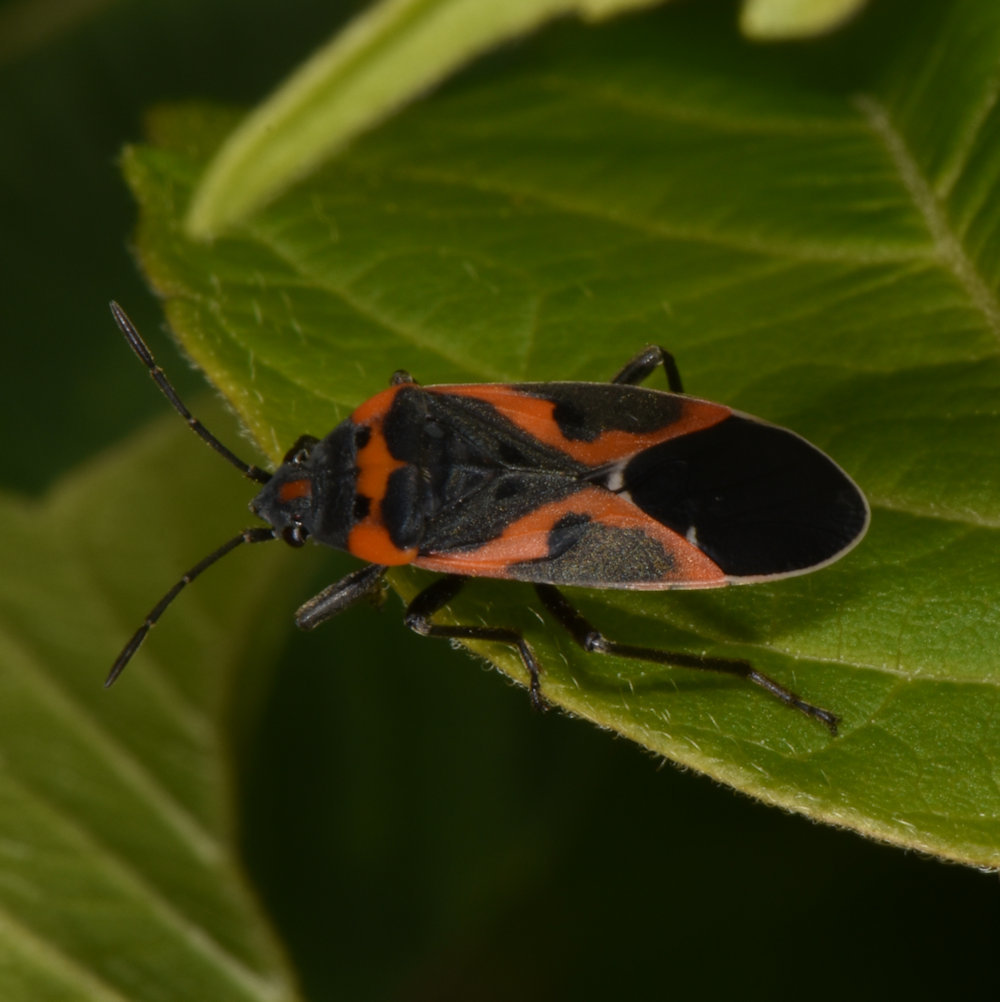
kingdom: Animalia
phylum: Arthropoda
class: Insecta
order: Hemiptera
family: Lygaeidae
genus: Lygaeus
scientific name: Lygaeus kalmii
